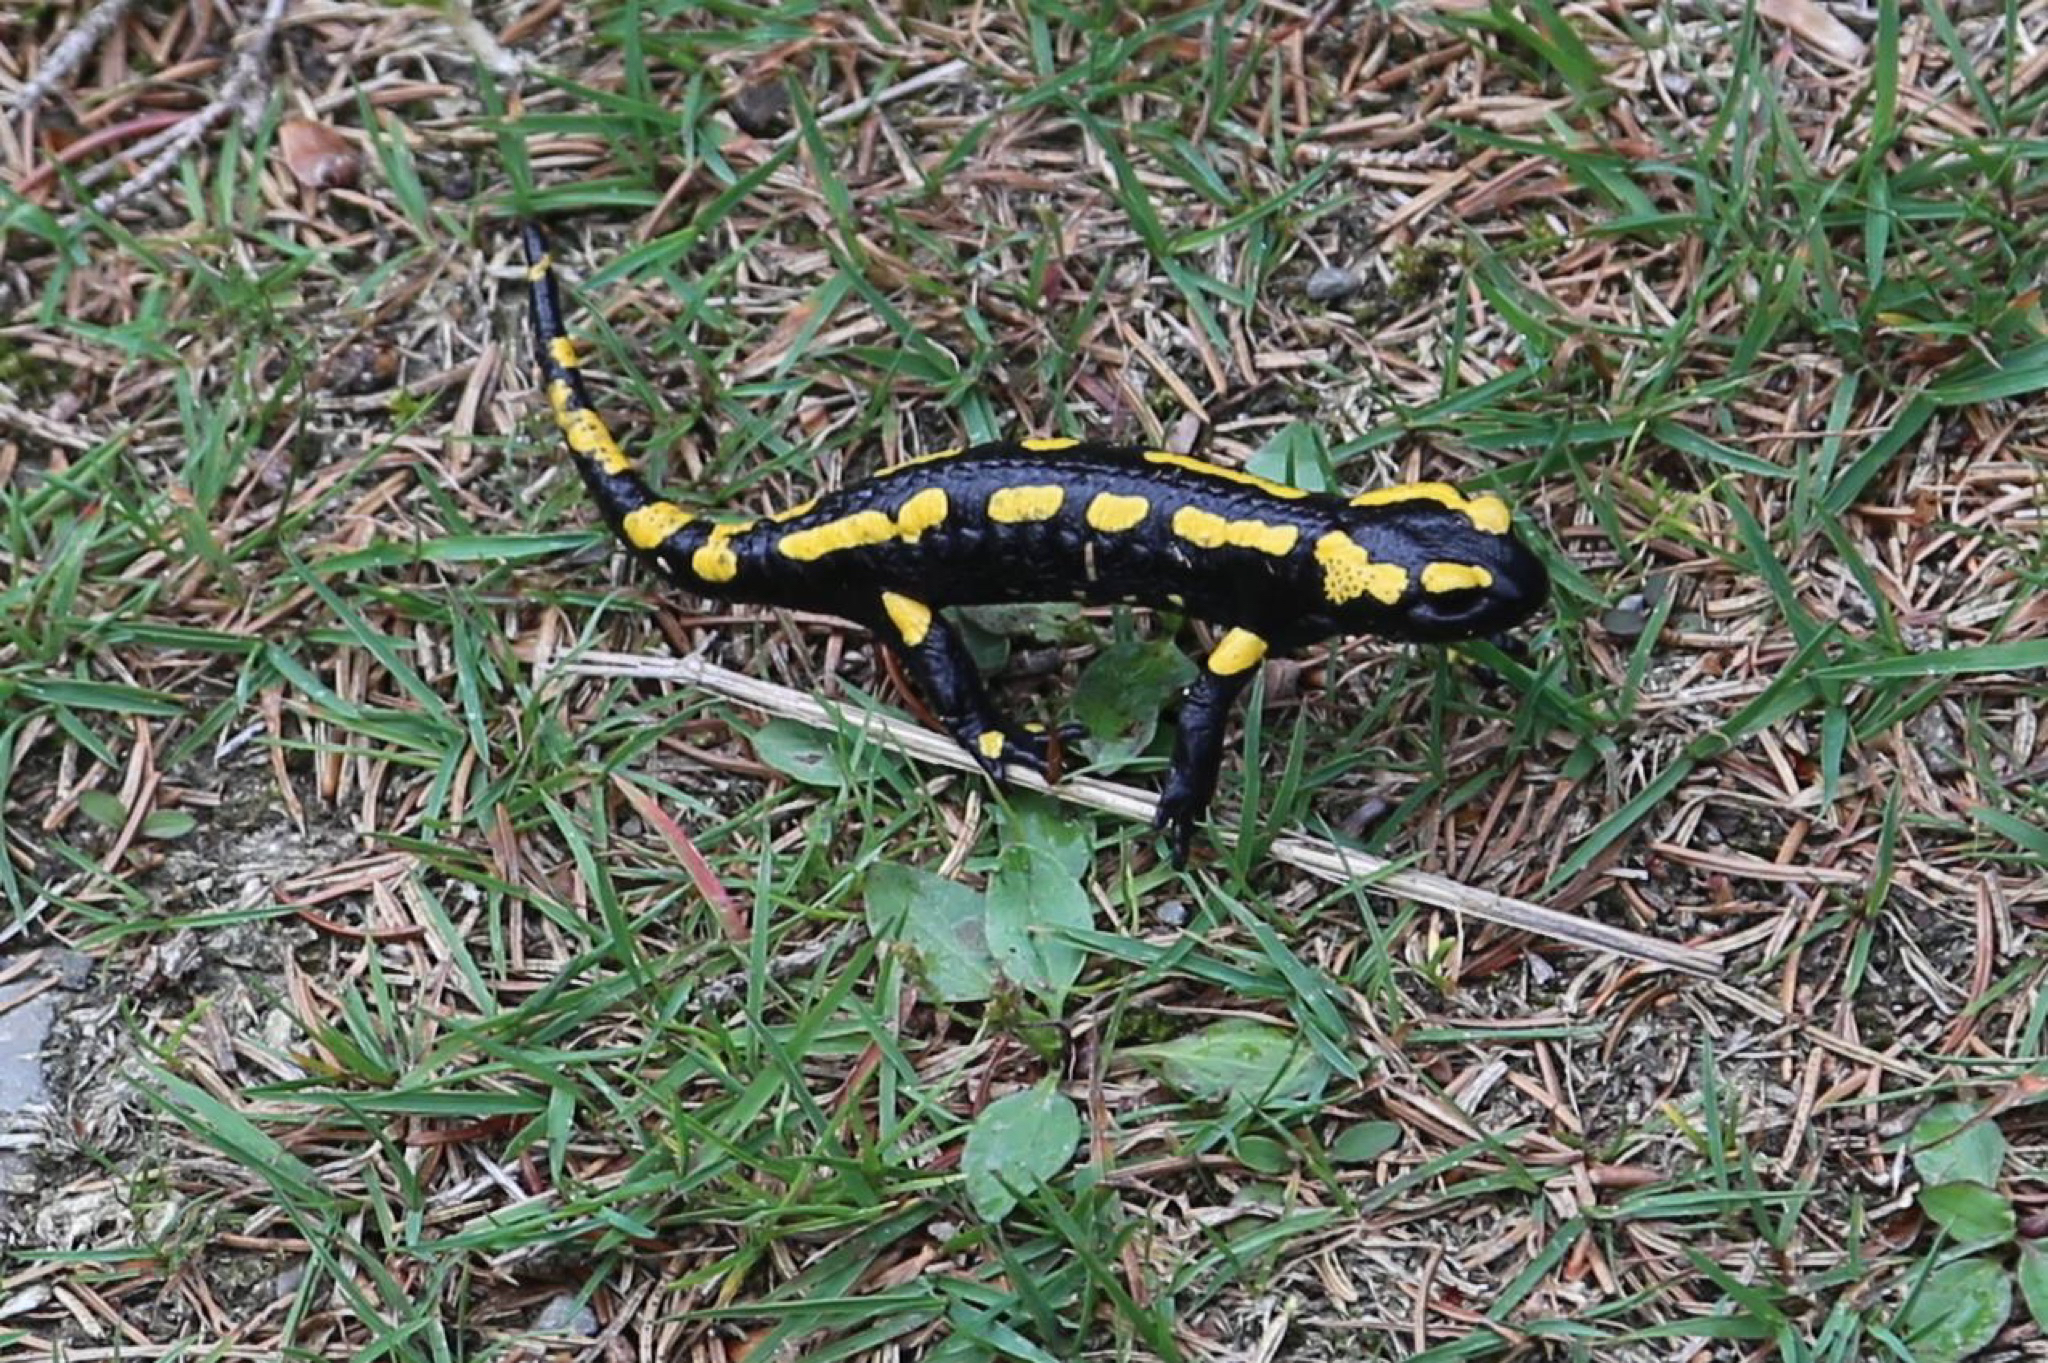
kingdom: Animalia
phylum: Chordata
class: Amphibia
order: Caudata
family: Salamandridae
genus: Salamandra
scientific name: Salamandra salamandra
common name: Fire salamander
